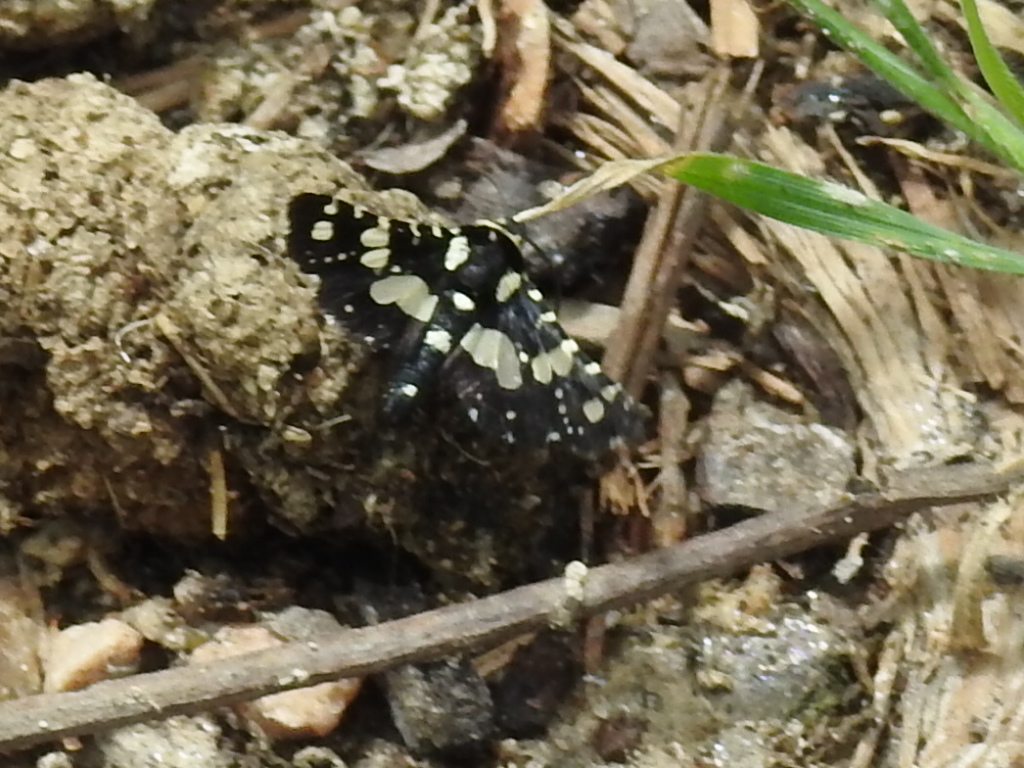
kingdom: Animalia
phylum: Arthropoda
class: Insecta
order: Lepidoptera
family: Thyrididae
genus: Pseudothyris
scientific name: Pseudothyris sepulchralis
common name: Mournful thyris moth
